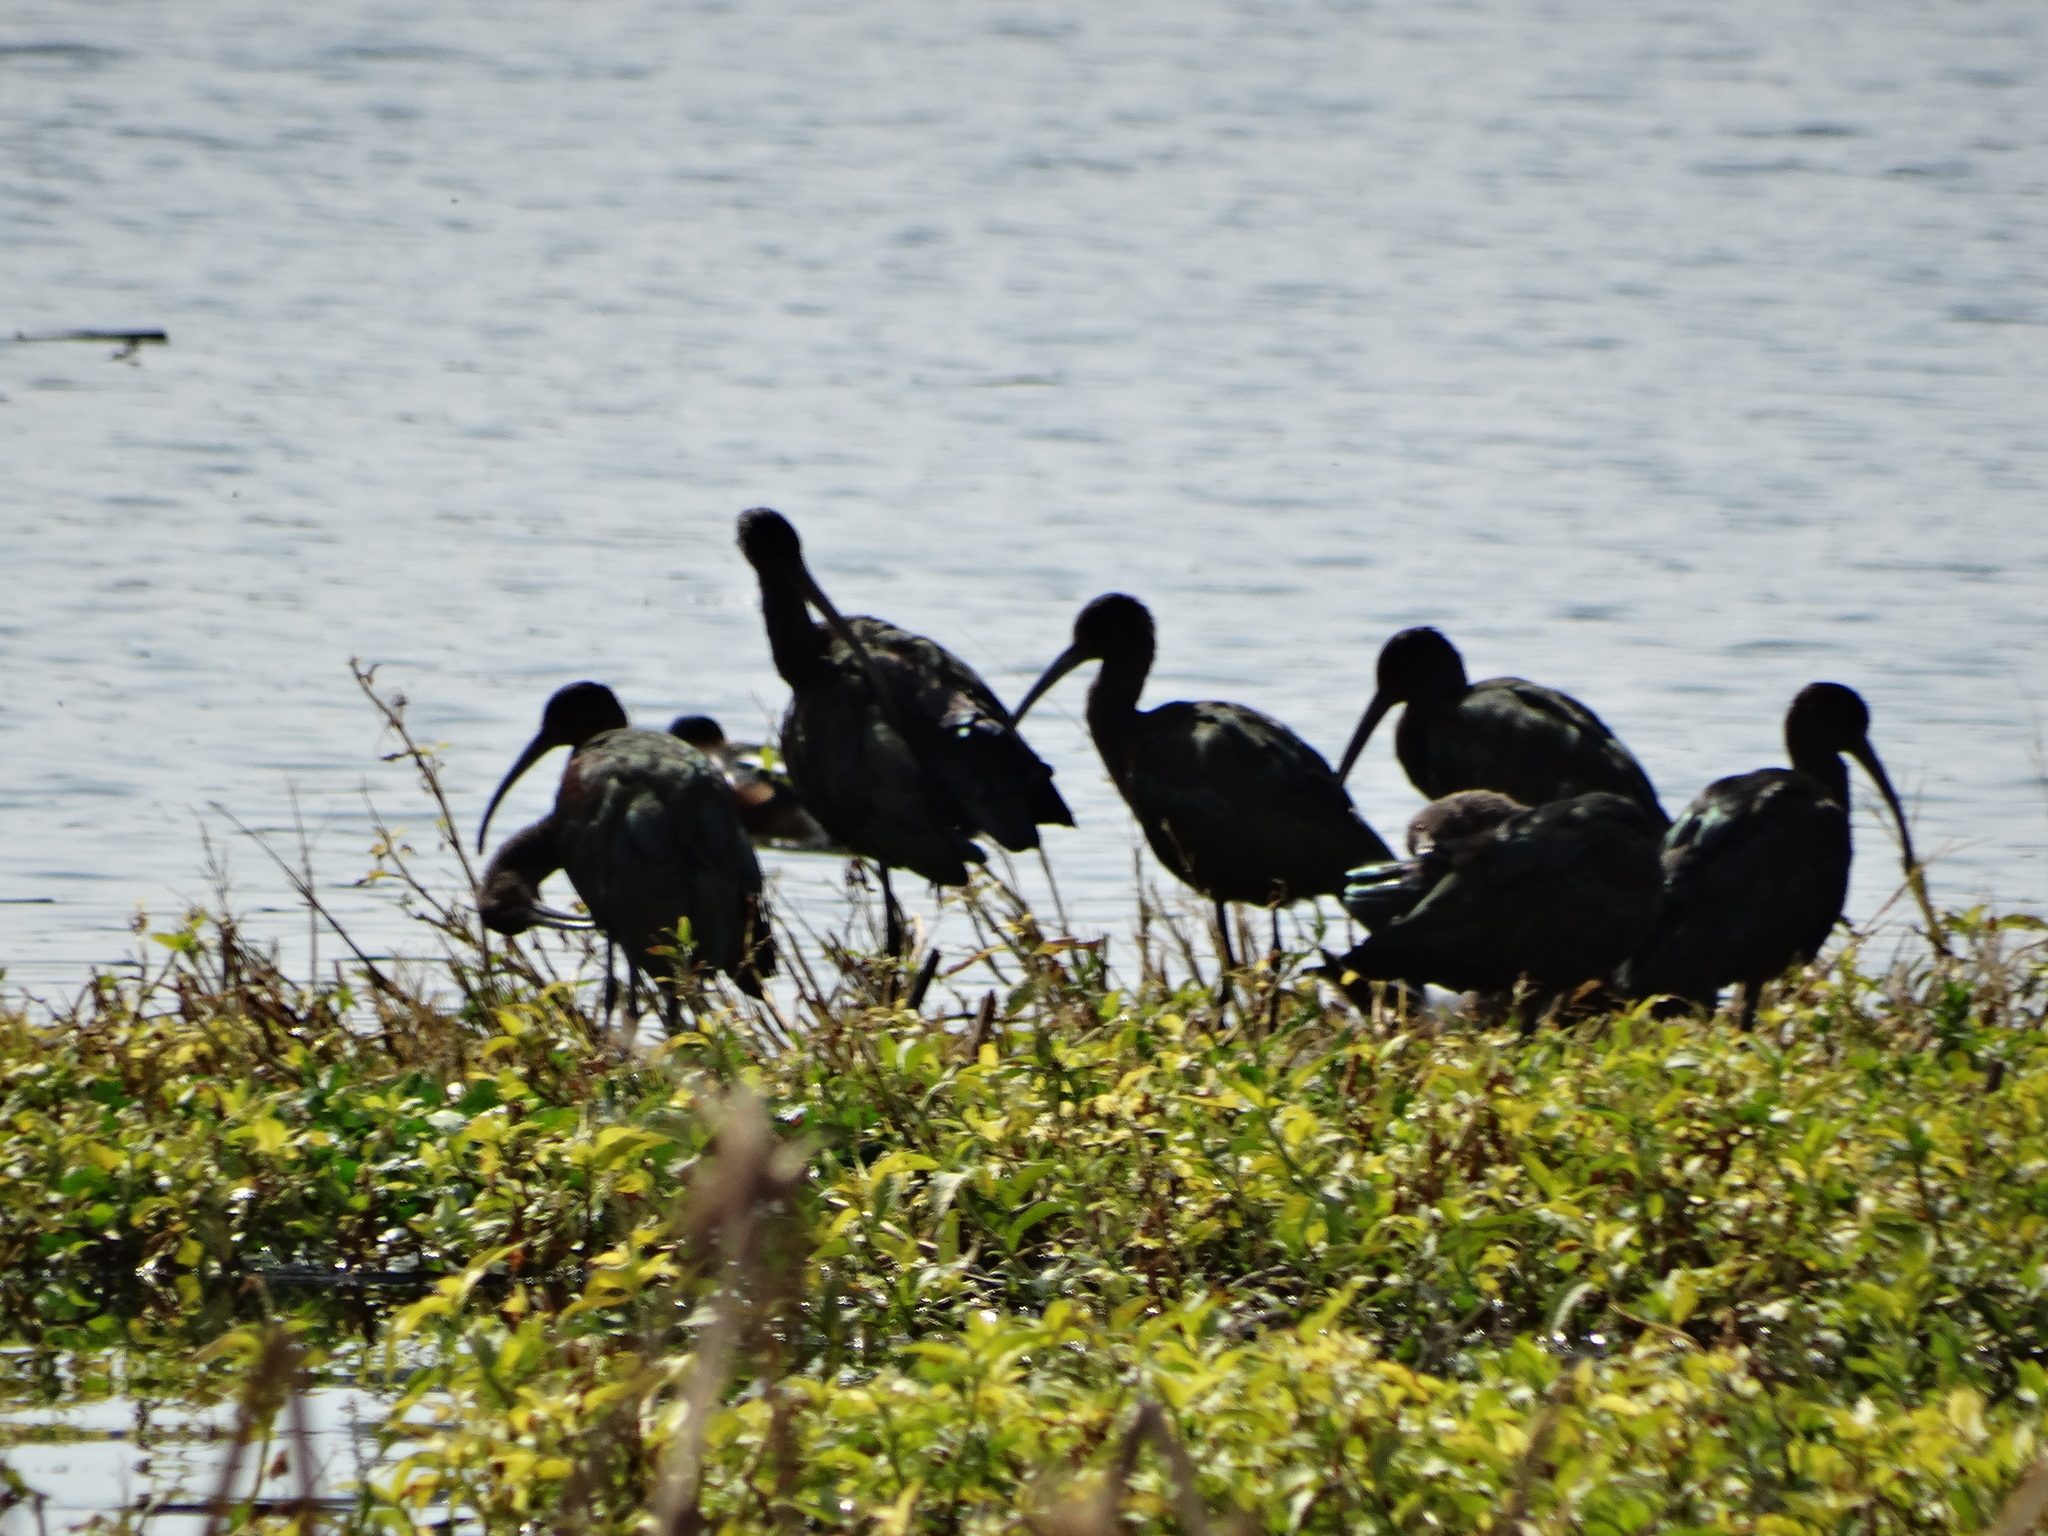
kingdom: Animalia
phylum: Chordata
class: Aves
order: Pelecaniformes
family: Threskiornithidae
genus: Plegadis
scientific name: Plegadis chihi
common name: White-faced ibis
